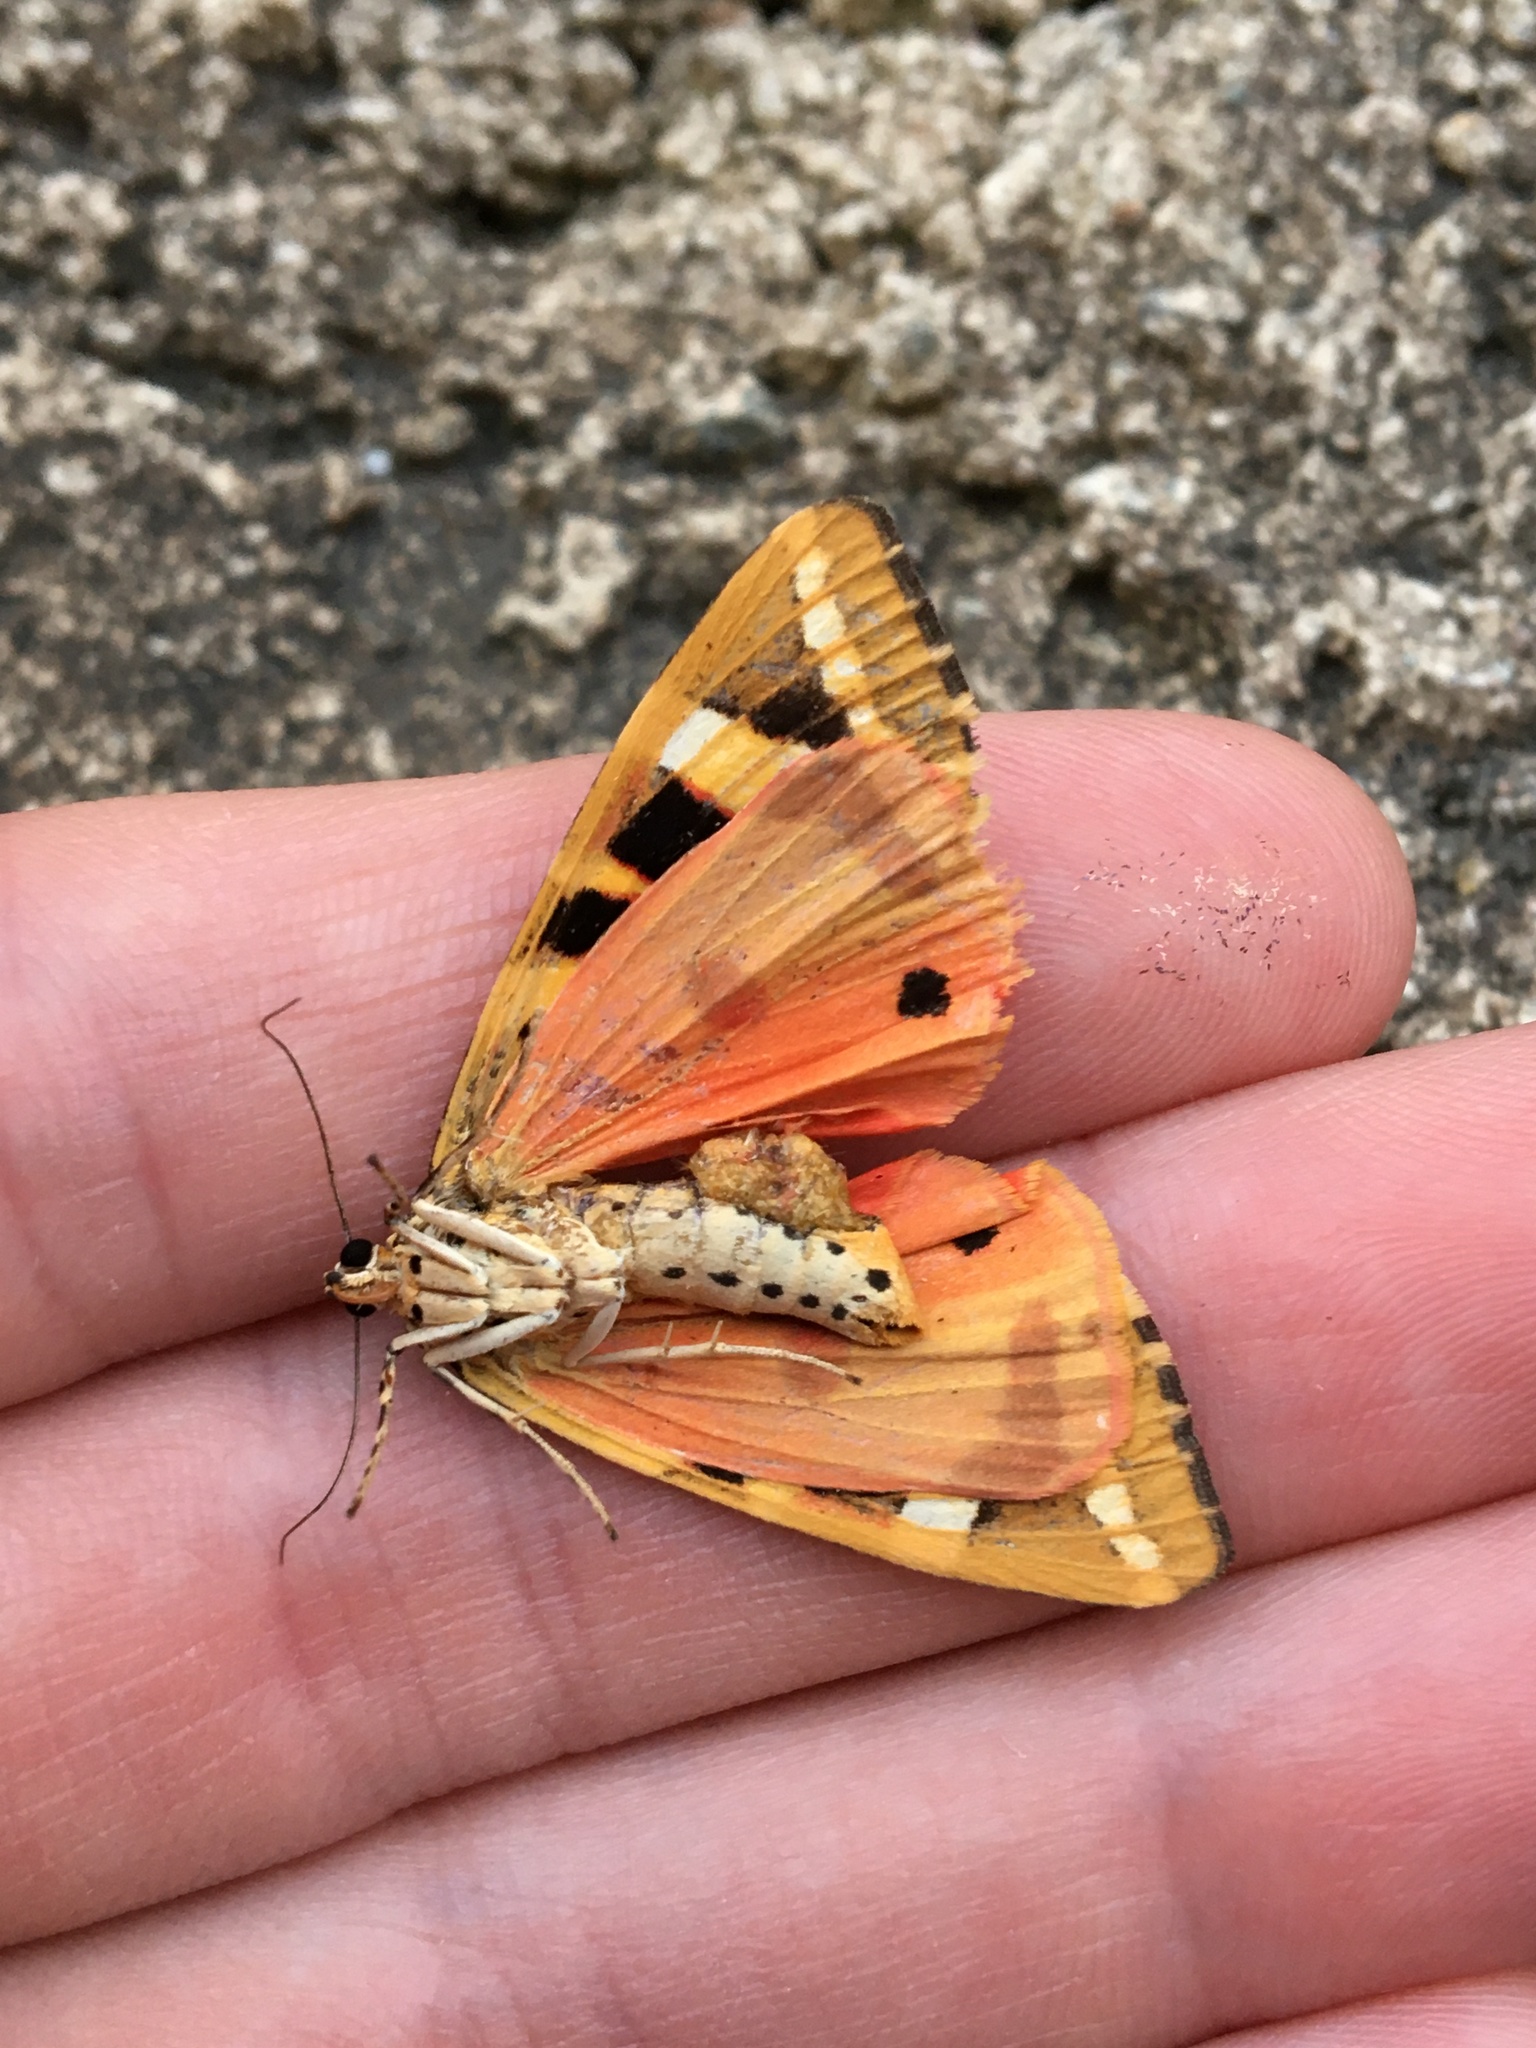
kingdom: Animalia
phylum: Arthropoda
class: Insecta
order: Lepidoptera
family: Erebidae
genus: Euplagia
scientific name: Euplagia quadripunctaria
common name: Jersey tiger
